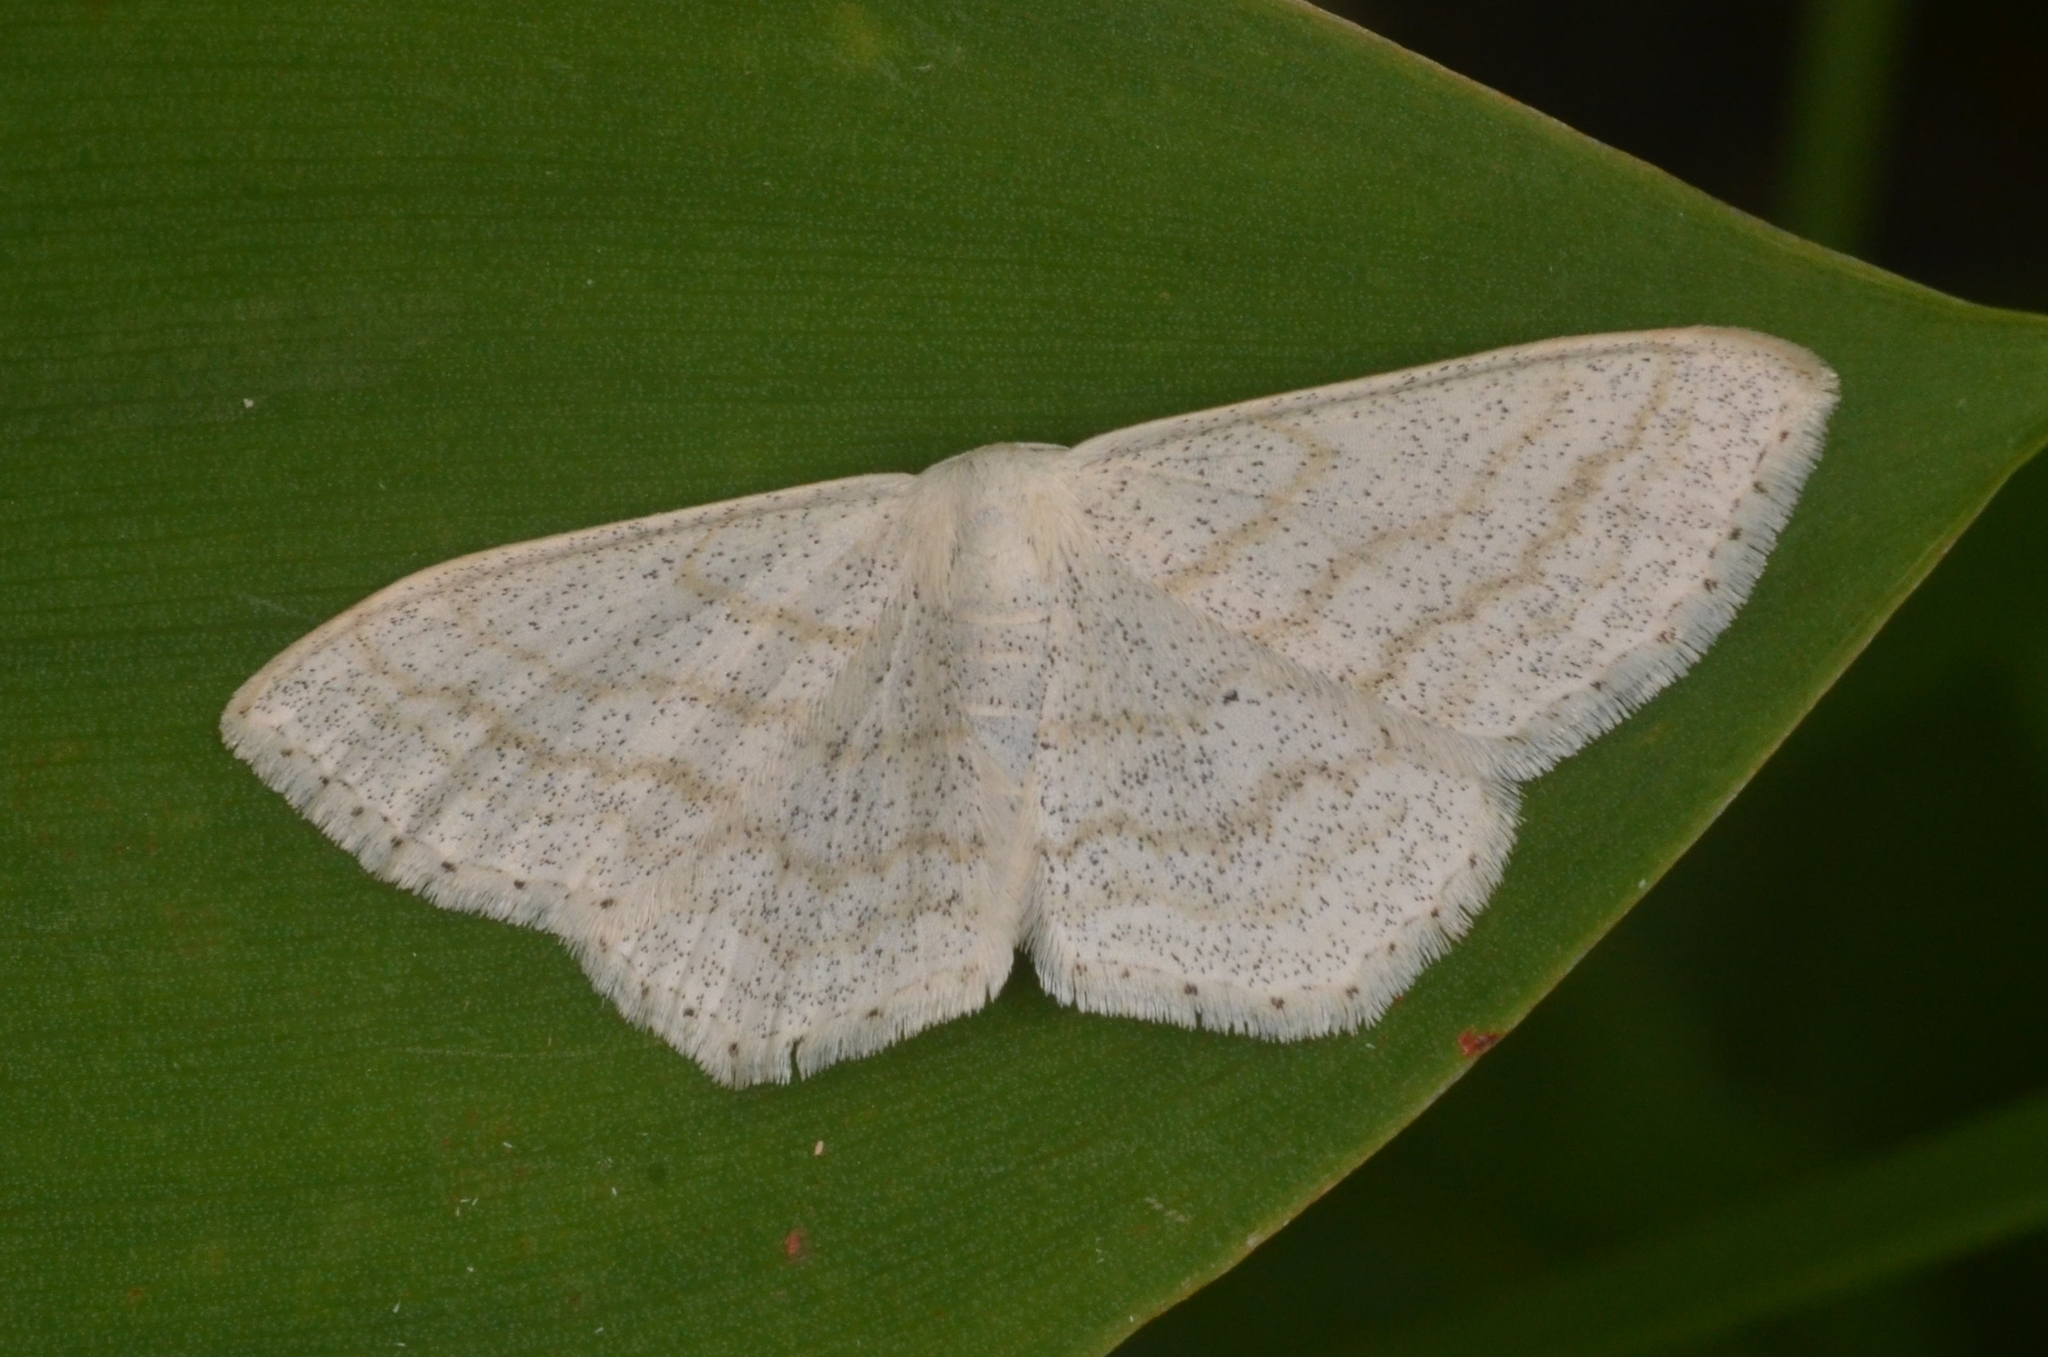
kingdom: Animalia
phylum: Arthropoda
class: Insecta
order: Lepidoptera
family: Geometridae
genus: Scopula
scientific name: Scopula umbelaria
